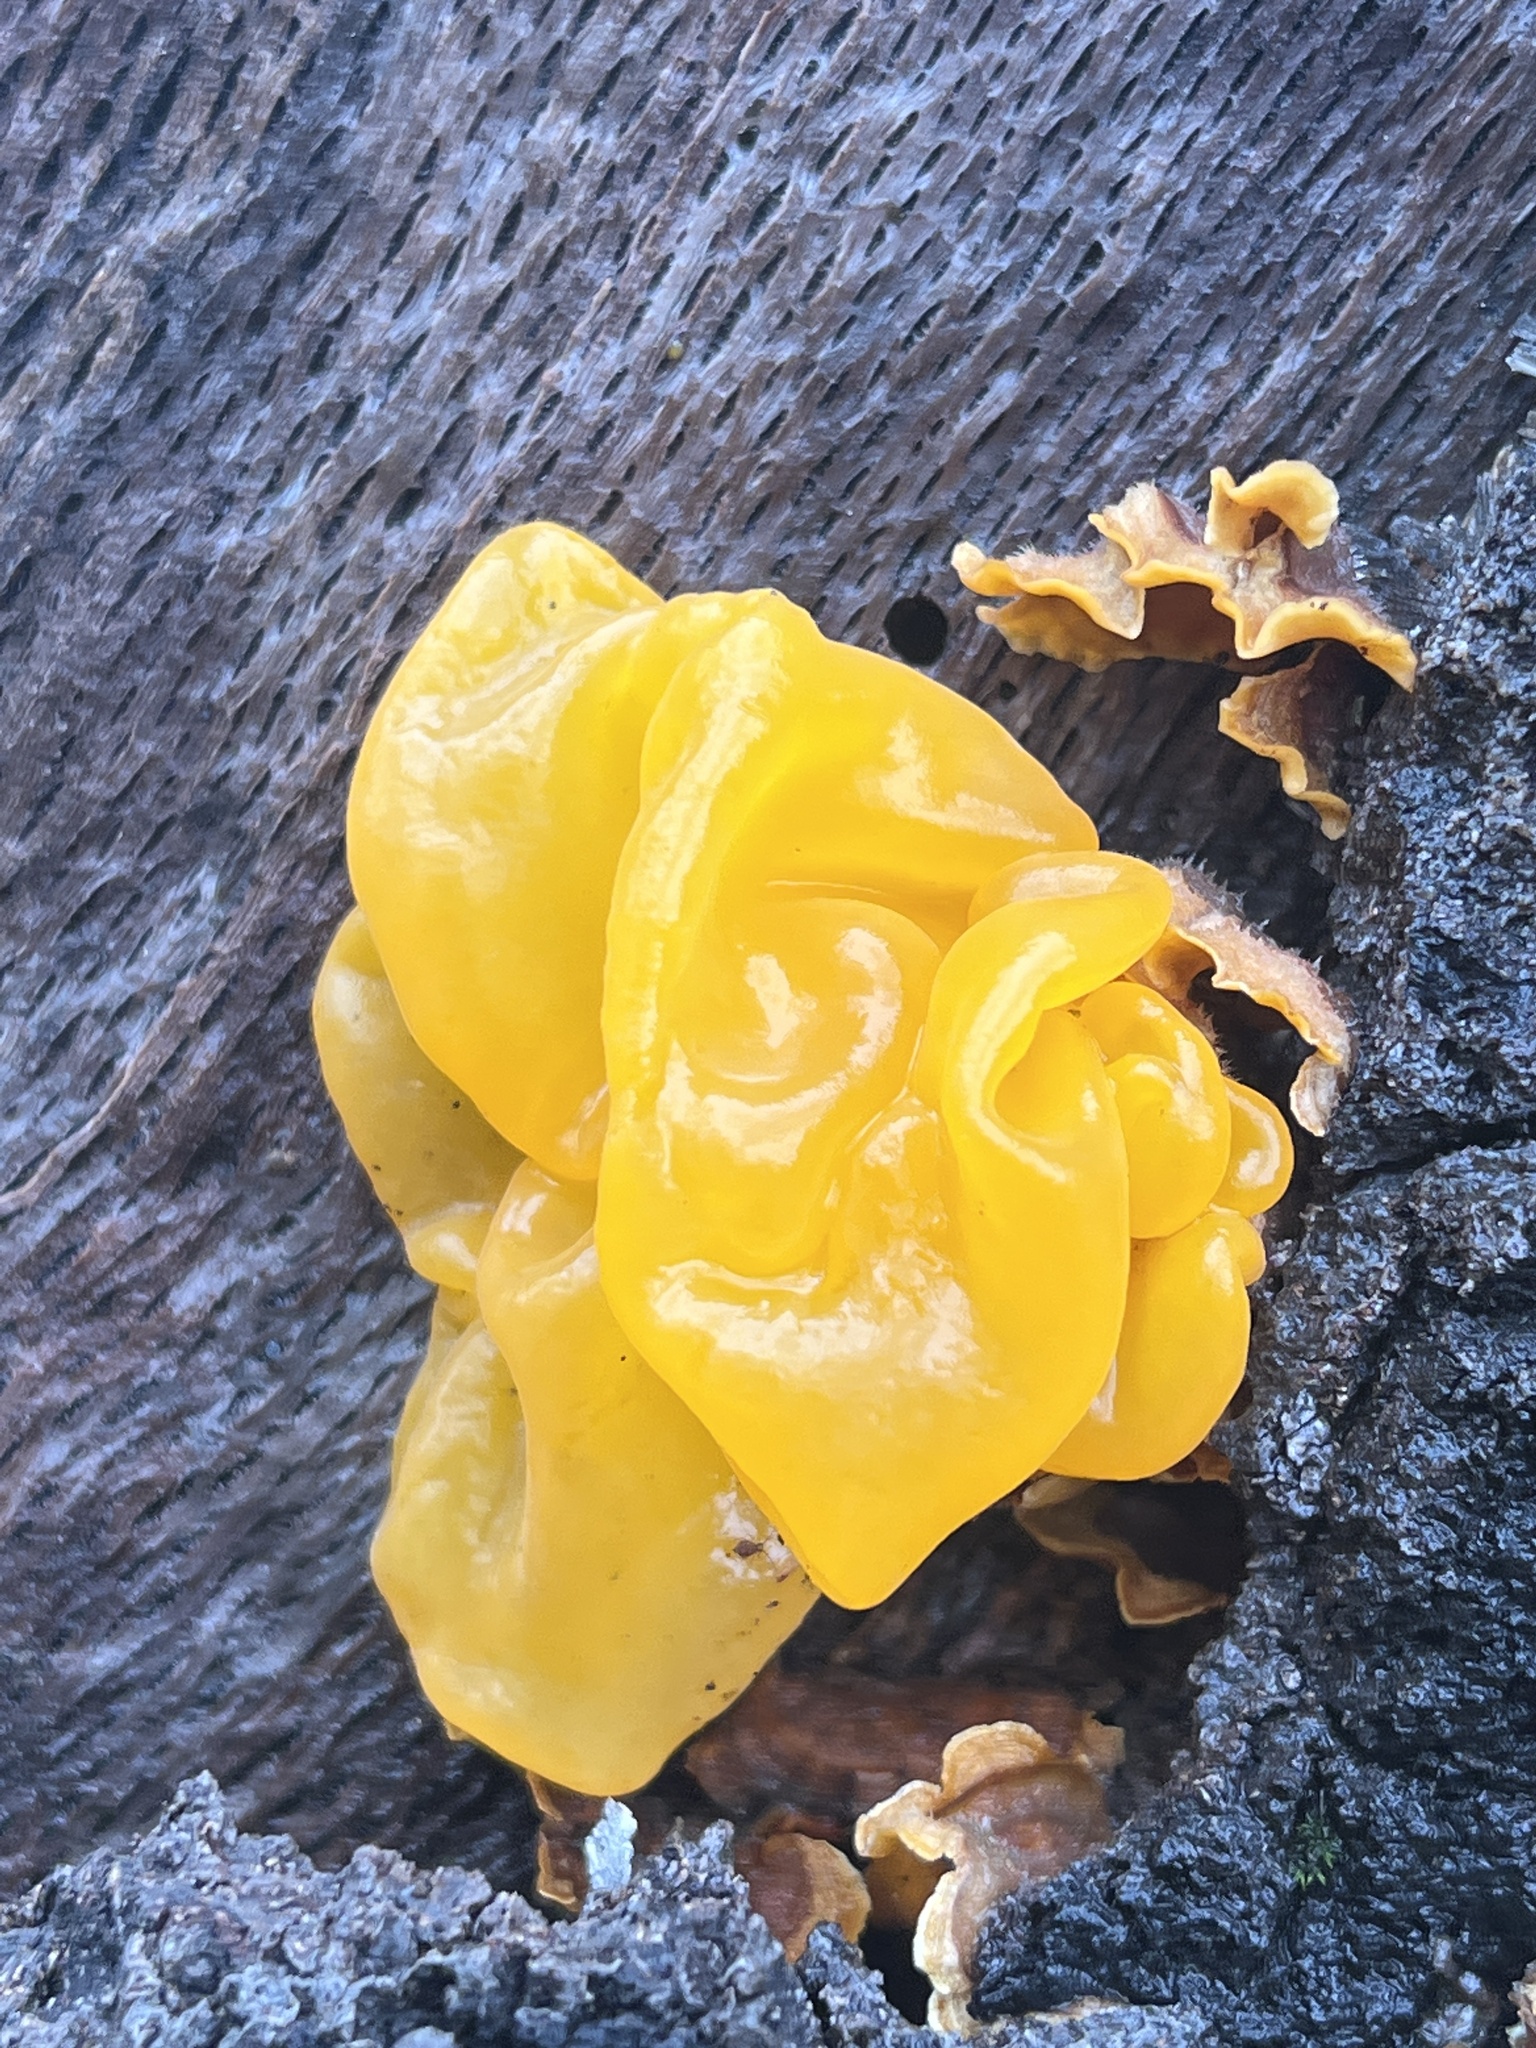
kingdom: Fungi
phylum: Basidiomycota
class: Tremellomycetes
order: Tremellales
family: Naemateliaceae
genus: Naematelia
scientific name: Naematelia aurantia
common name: Golden ear
